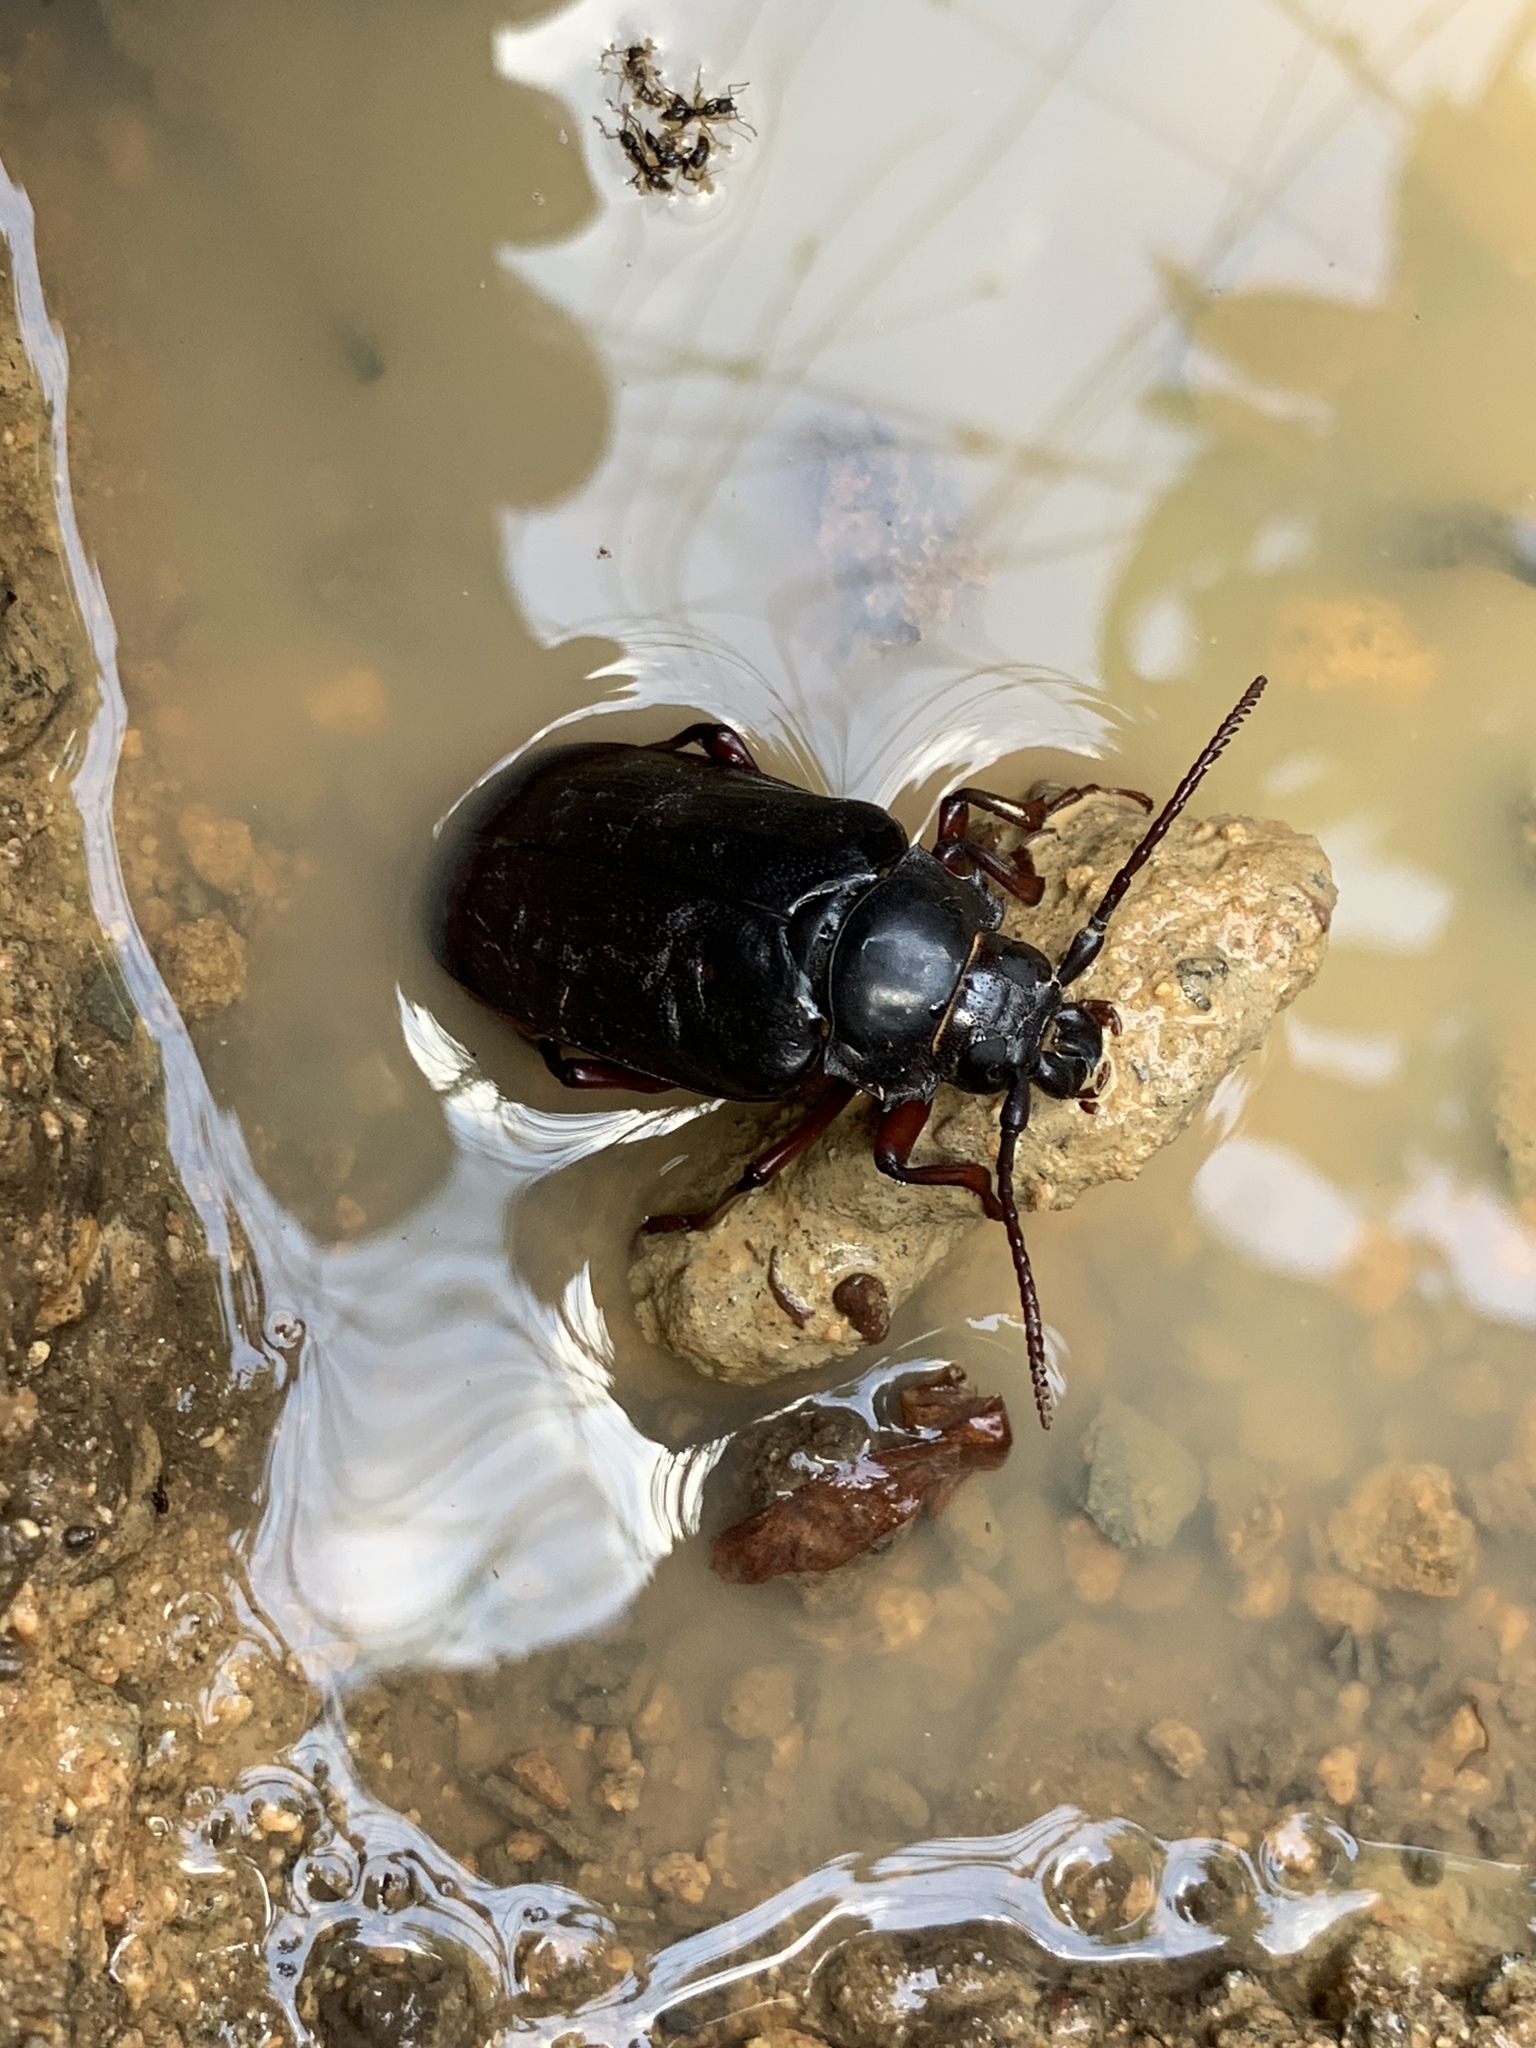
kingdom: Animalia
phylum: Arthropoda
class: Insecta
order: Coleoptera
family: Cerambycidae
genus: Prionus
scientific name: Prionus imbricornis
